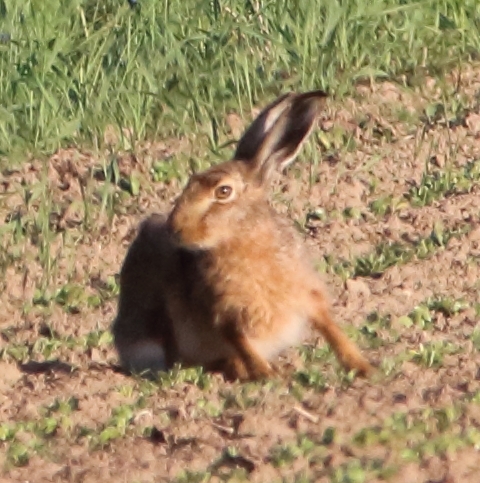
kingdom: Animalia
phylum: Chordata
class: Mammalia
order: Lagomorpha
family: Leporidae
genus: Lepus
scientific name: Lepus europaeus
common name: European hare
